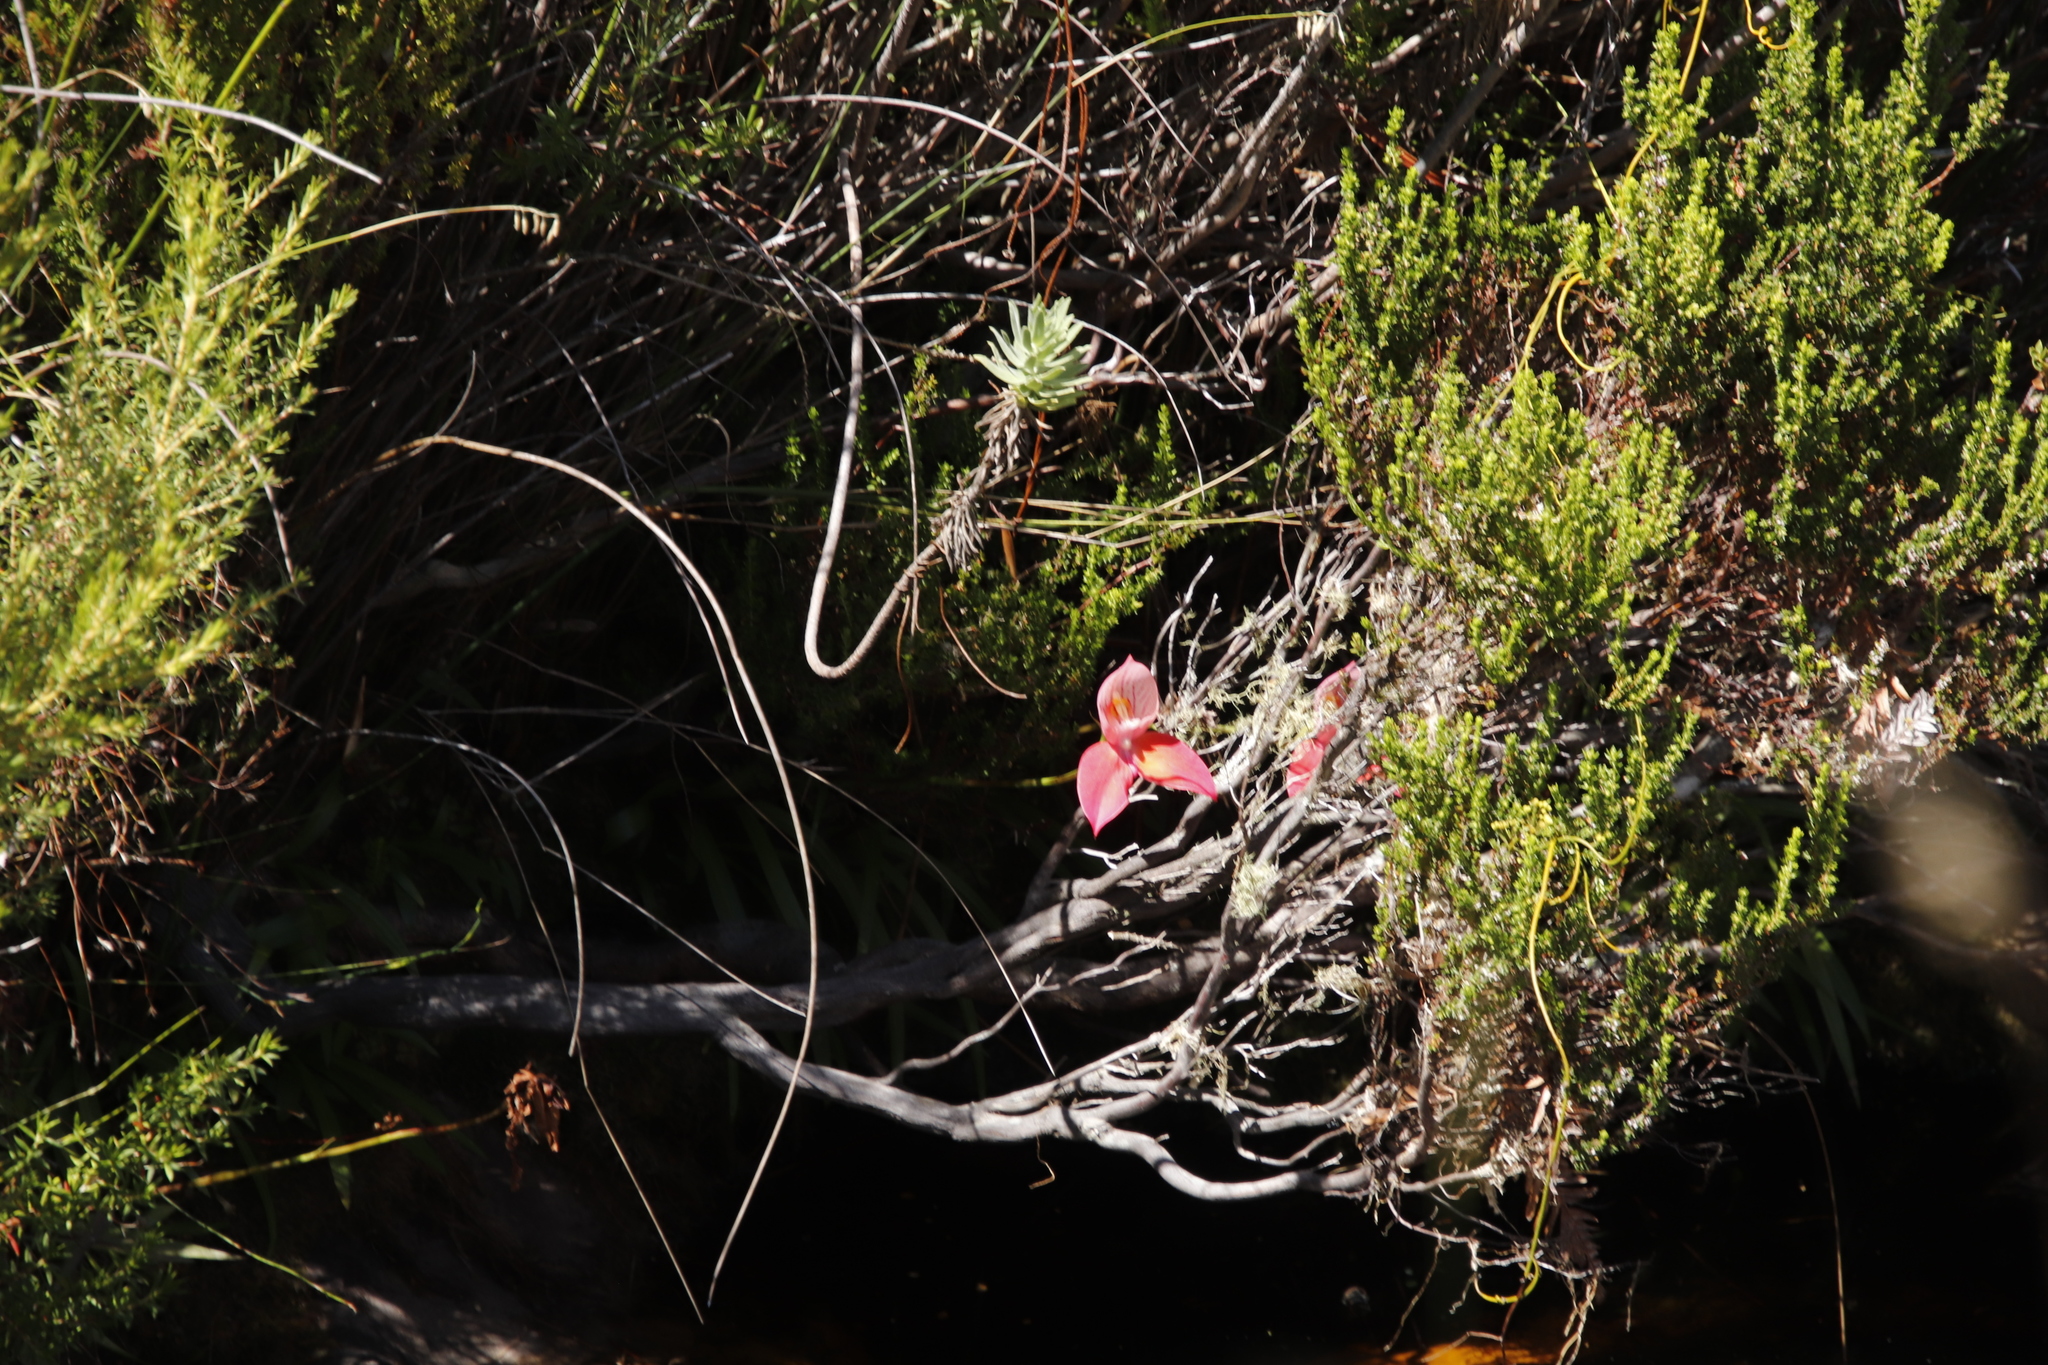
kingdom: Plantae
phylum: Tracheophyta
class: Liliopsida
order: Asparagales
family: Orchidaceae
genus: Disa
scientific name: Disa uniflora
